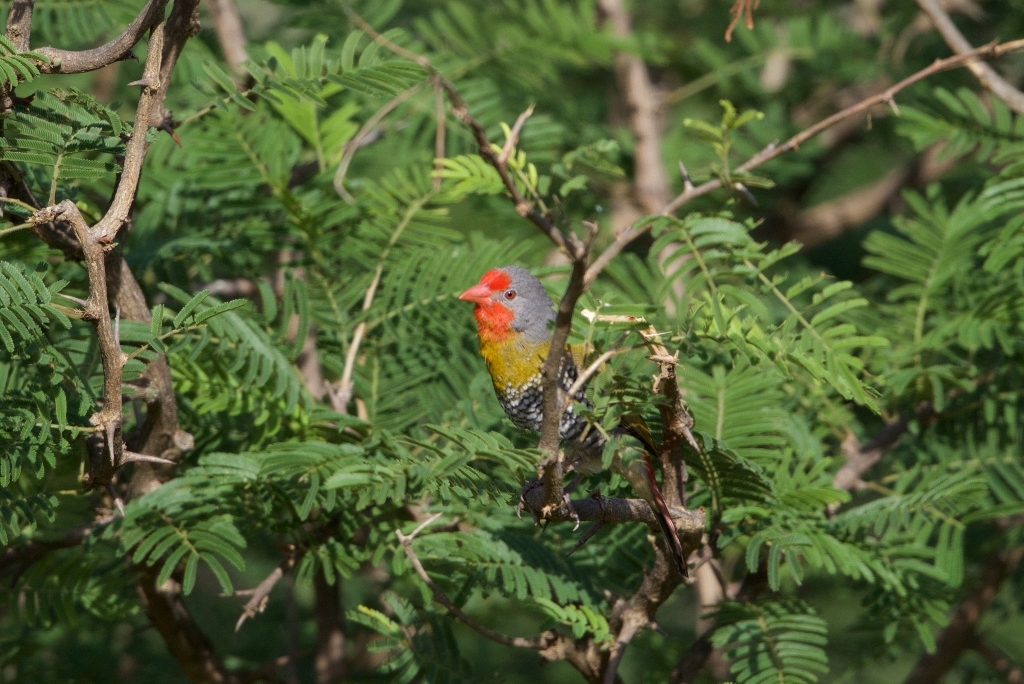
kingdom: Animalia
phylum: Chordata
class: Aves
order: Passeriformes
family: Estrildidae
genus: Pytilia
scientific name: Pytilia melba
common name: Green-winged pytilia
